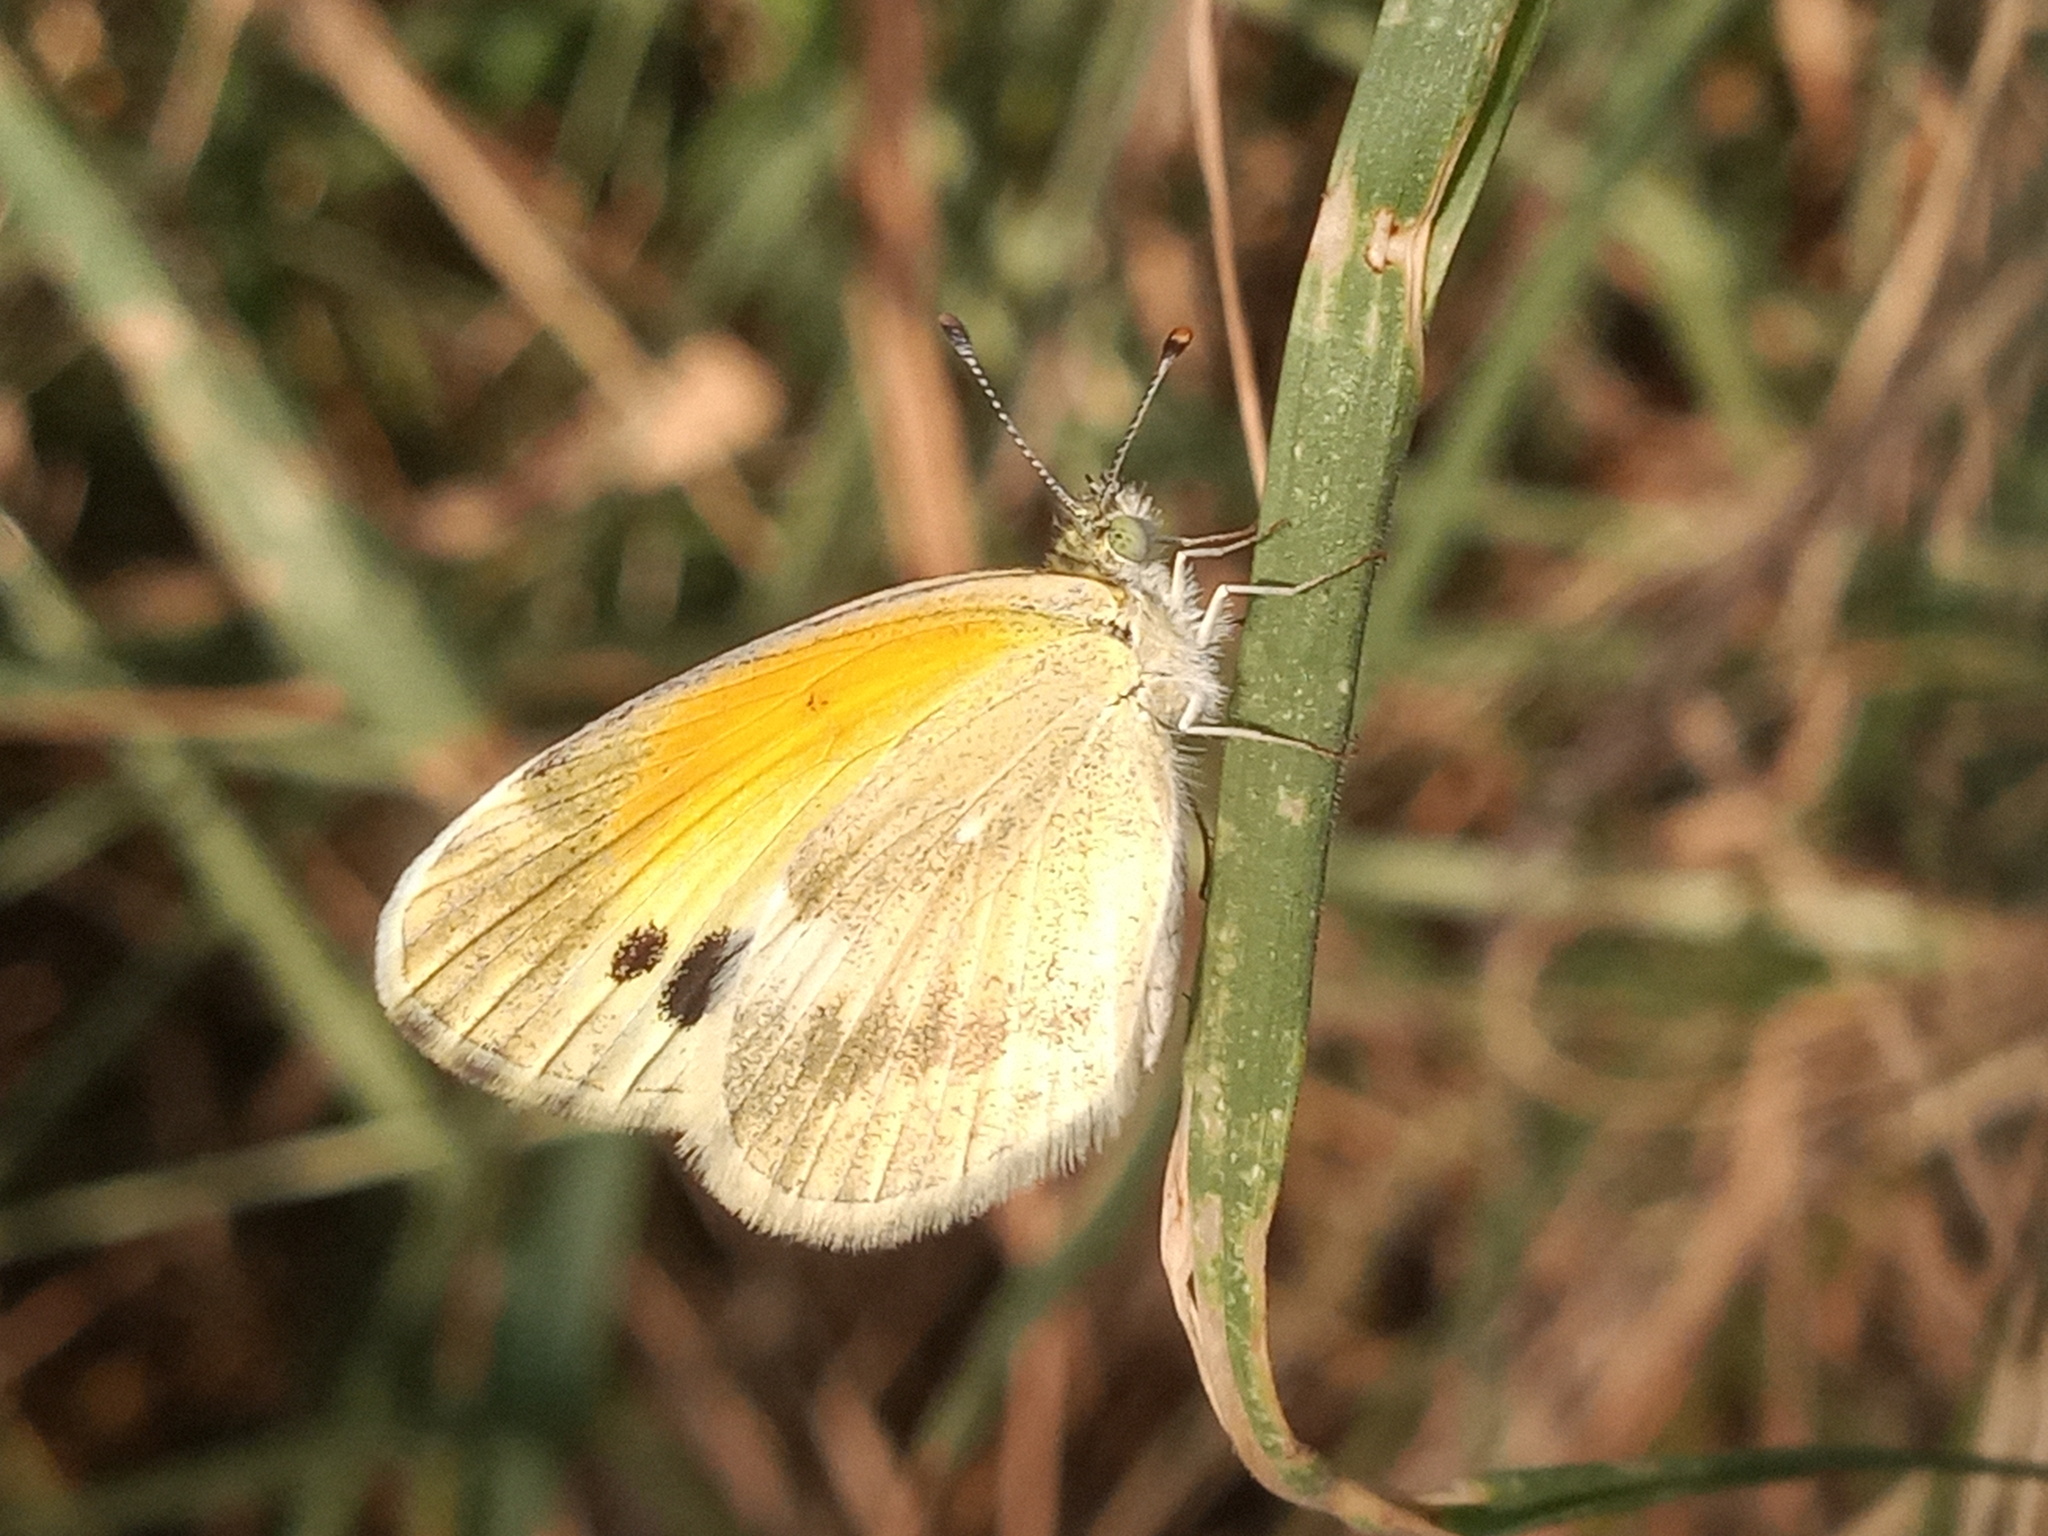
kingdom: Animalia
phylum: Arthropoda
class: Insecta
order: Lepidoptera
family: Pieridae
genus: Nathalis
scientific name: Nathalis iole
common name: Dainty sulphur
